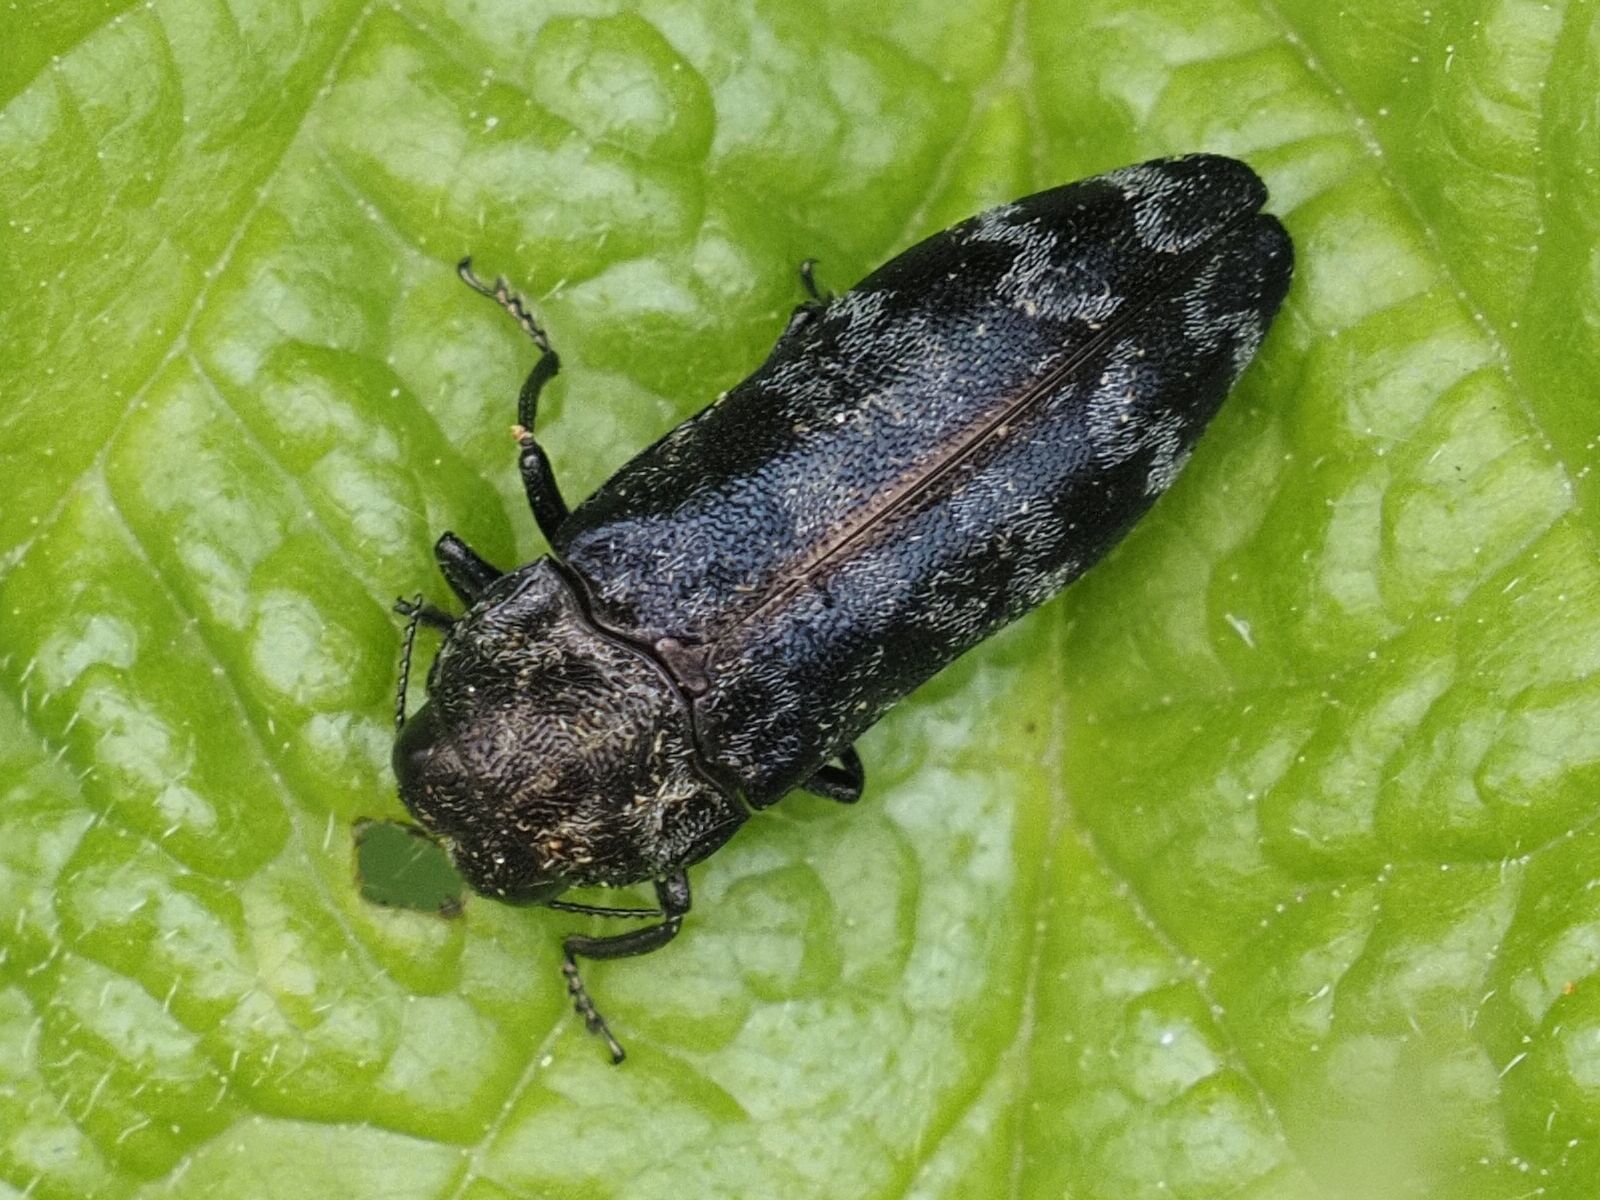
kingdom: Animalia
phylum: Arthropoda
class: Insecta
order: Coleoptera
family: Buprestidae
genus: Coraebus
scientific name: Coraebus rubi
